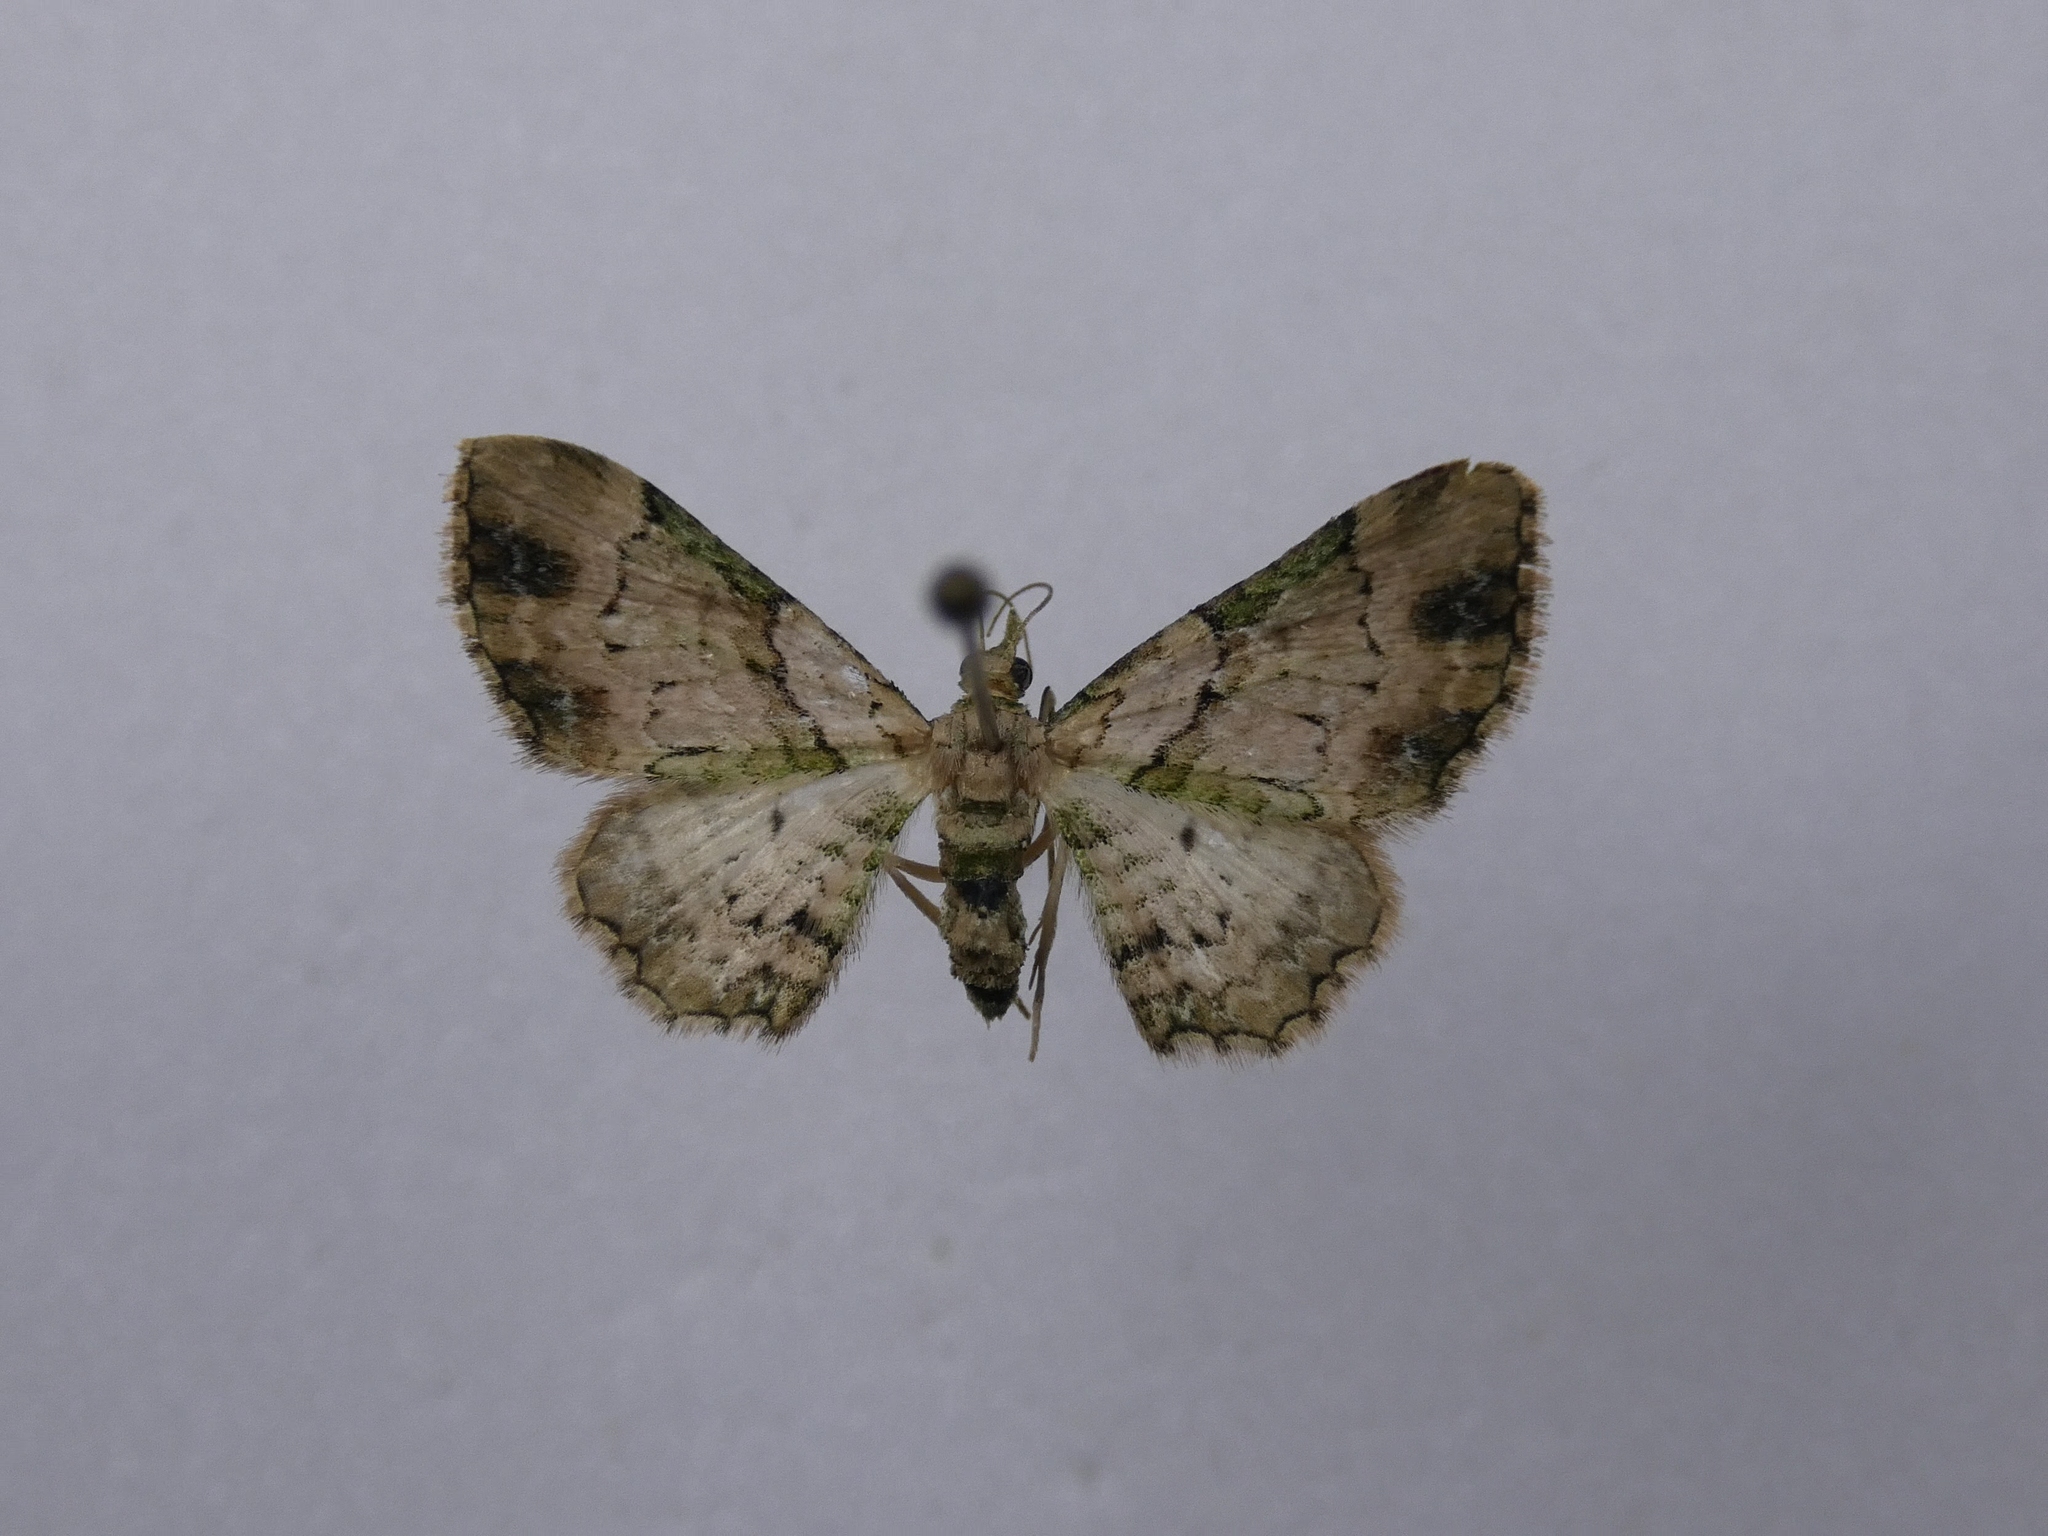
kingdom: Animalia
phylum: Arthropoda
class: Insecta
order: Lepidoptera
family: Geometridae
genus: Chloroclystis
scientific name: Chloroclystis
